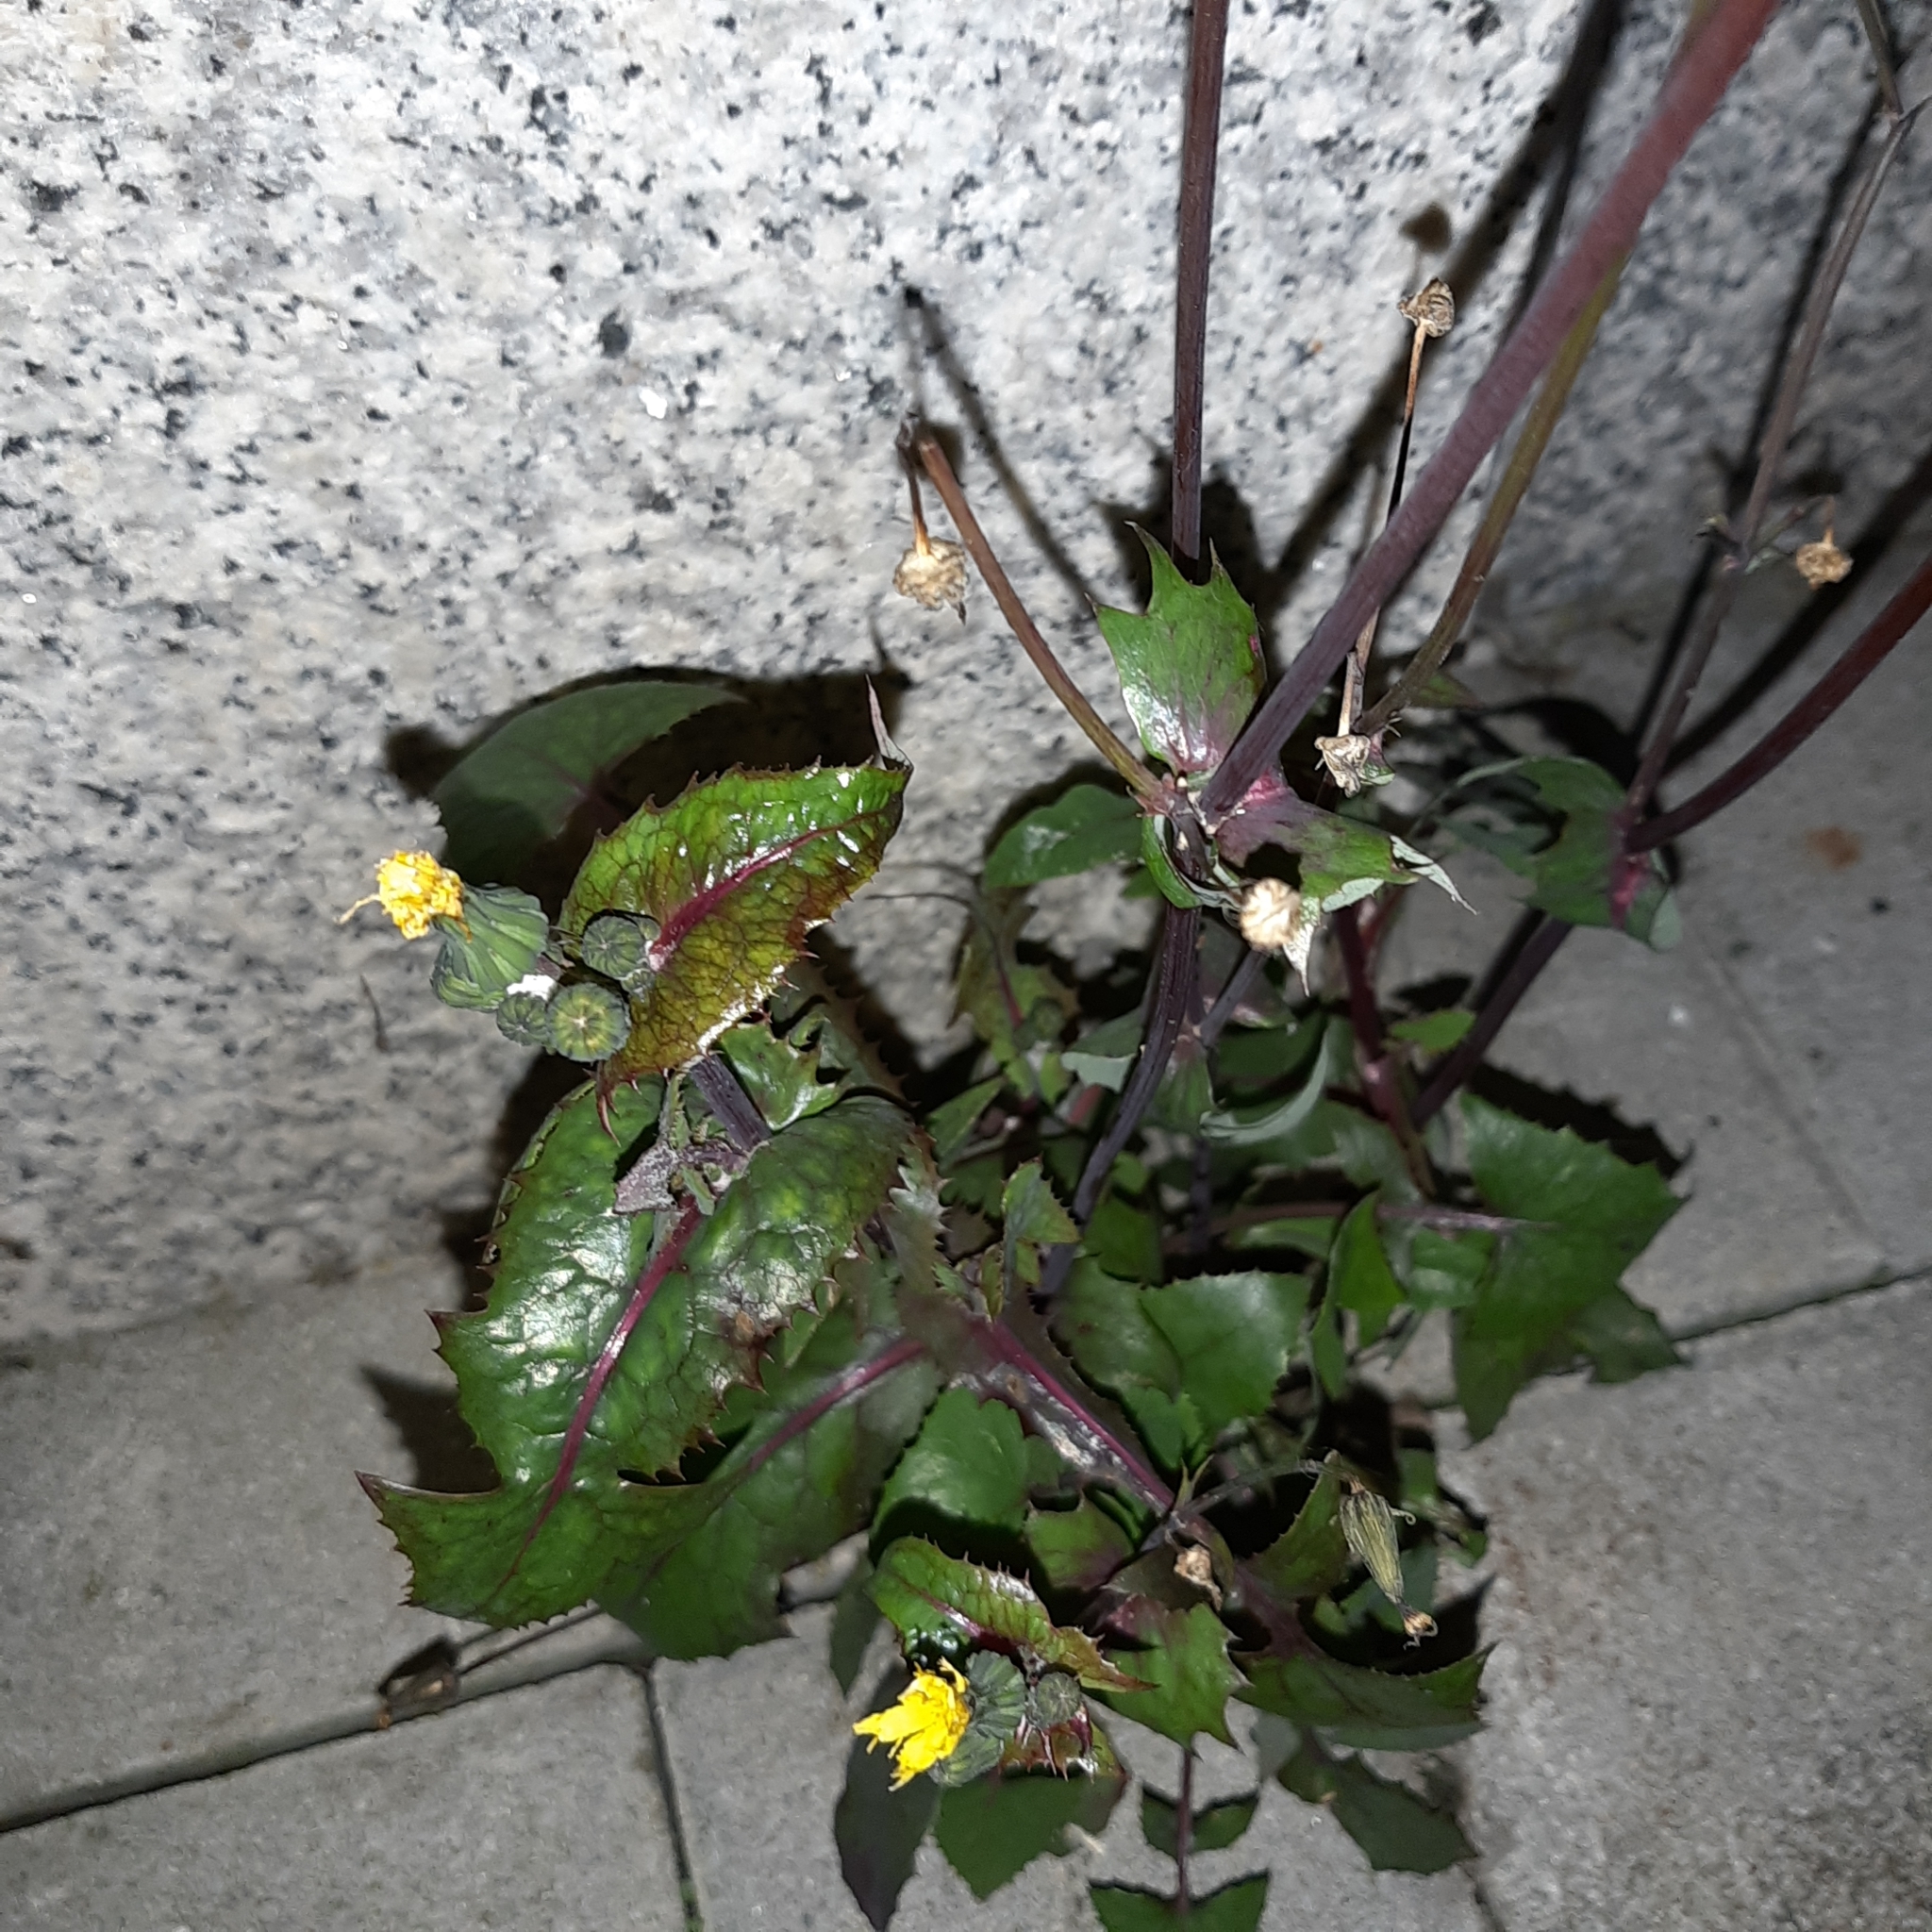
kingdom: Plantae
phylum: Tracheophyta
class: Magnoliopsida
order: Asterales
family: Asteraceae
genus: Sonchus
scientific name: Sonchus oleraceus
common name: Common sowthistle
